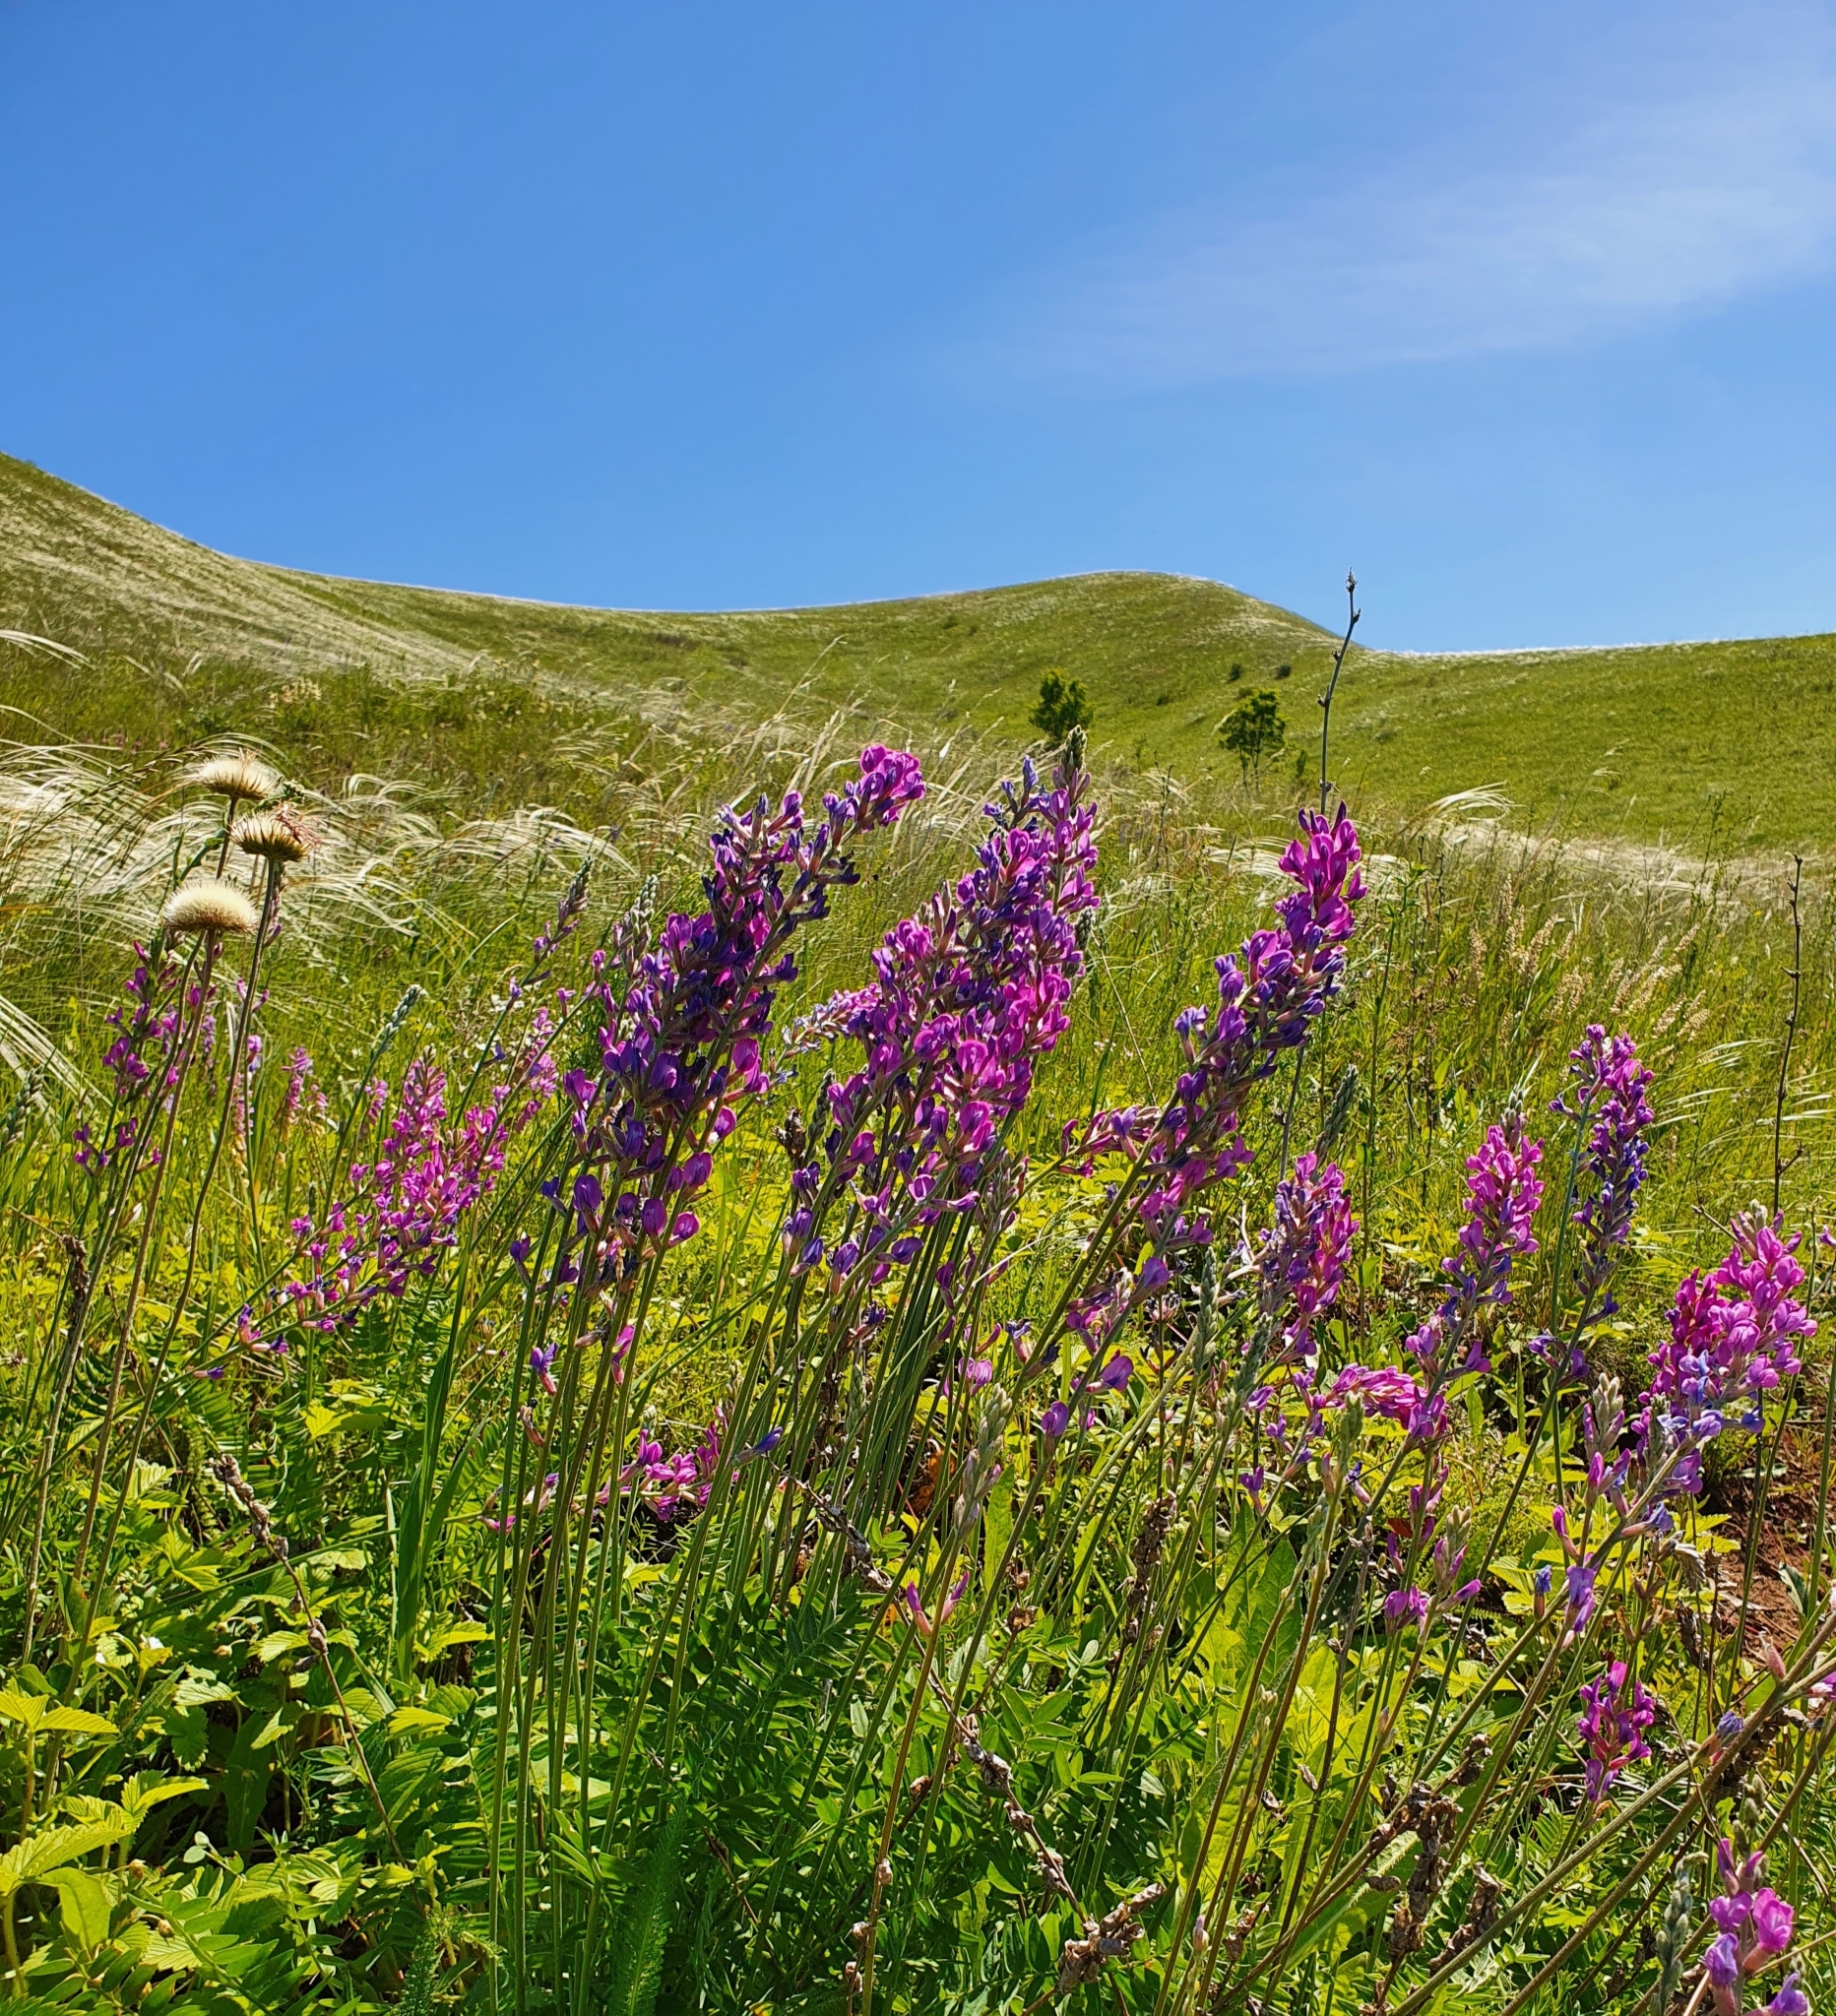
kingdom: Plantae
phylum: Tracheophyta
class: Magnoliopsida
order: Fabales
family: Fabaceae
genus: Oxytropis
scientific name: Oxytropis knjazevii
